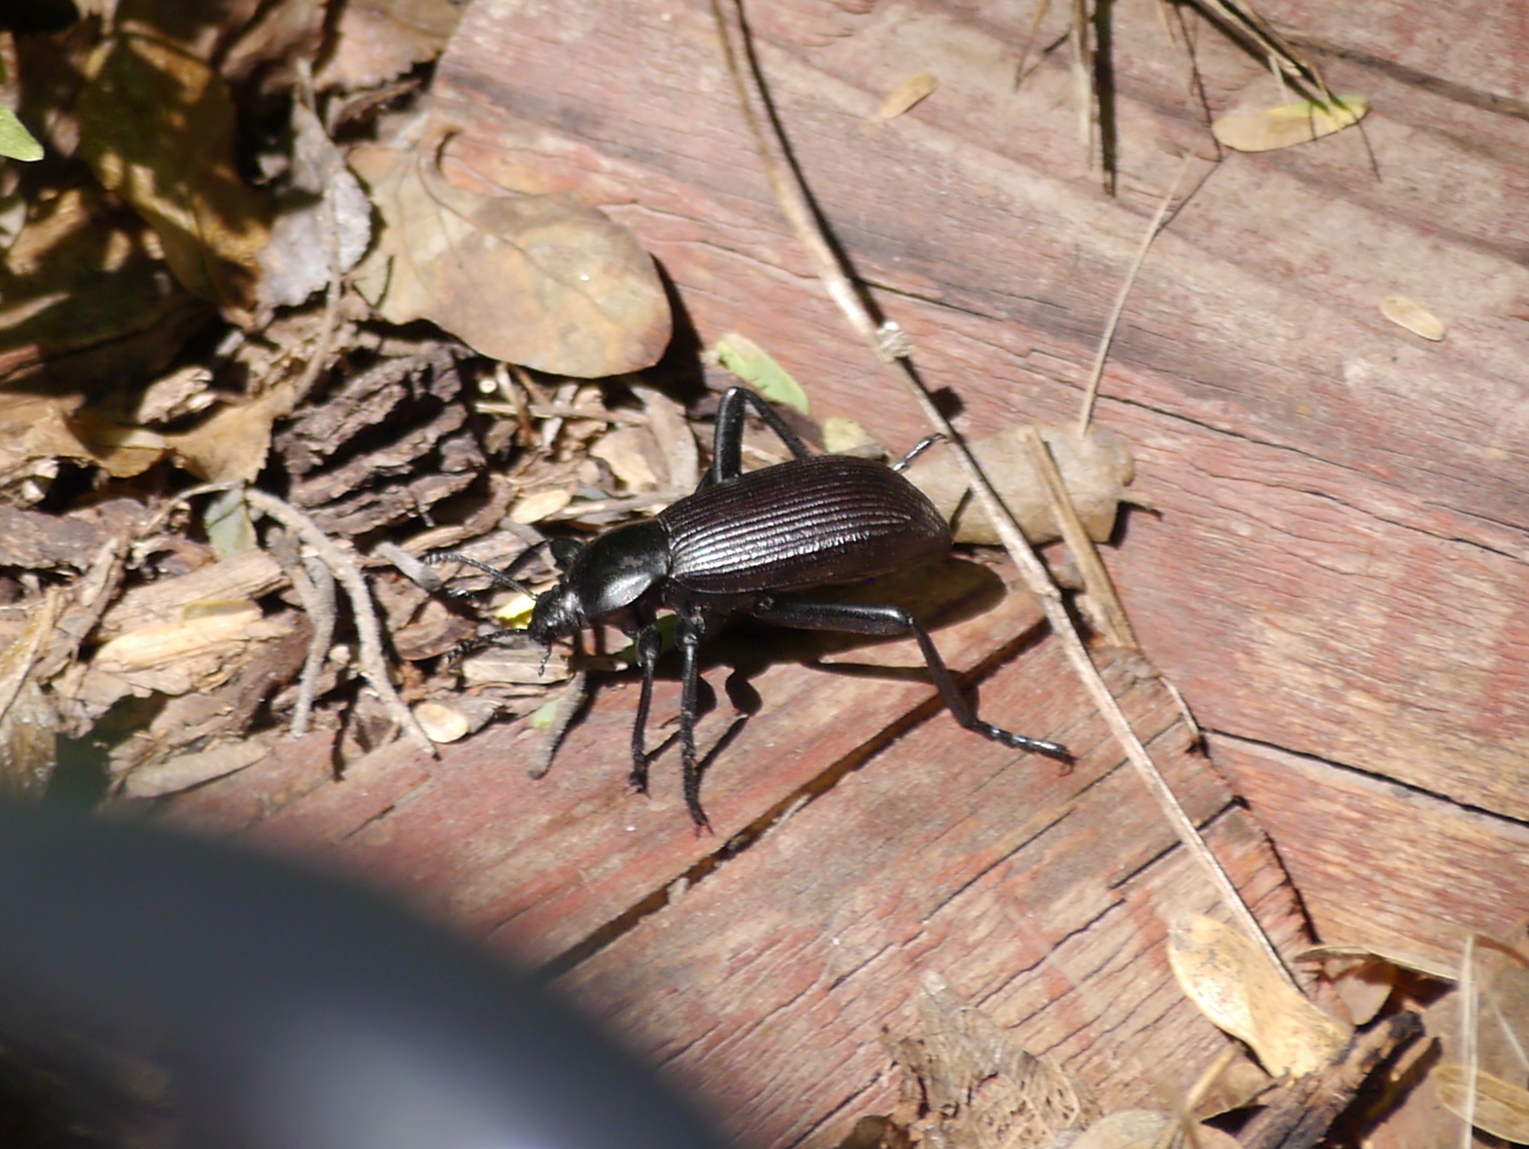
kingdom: Animalia
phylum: Arthropoda
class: Insecta
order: Coleoptera
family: Tenebrionidae
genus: Eleodes
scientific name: Eleodes obscura
